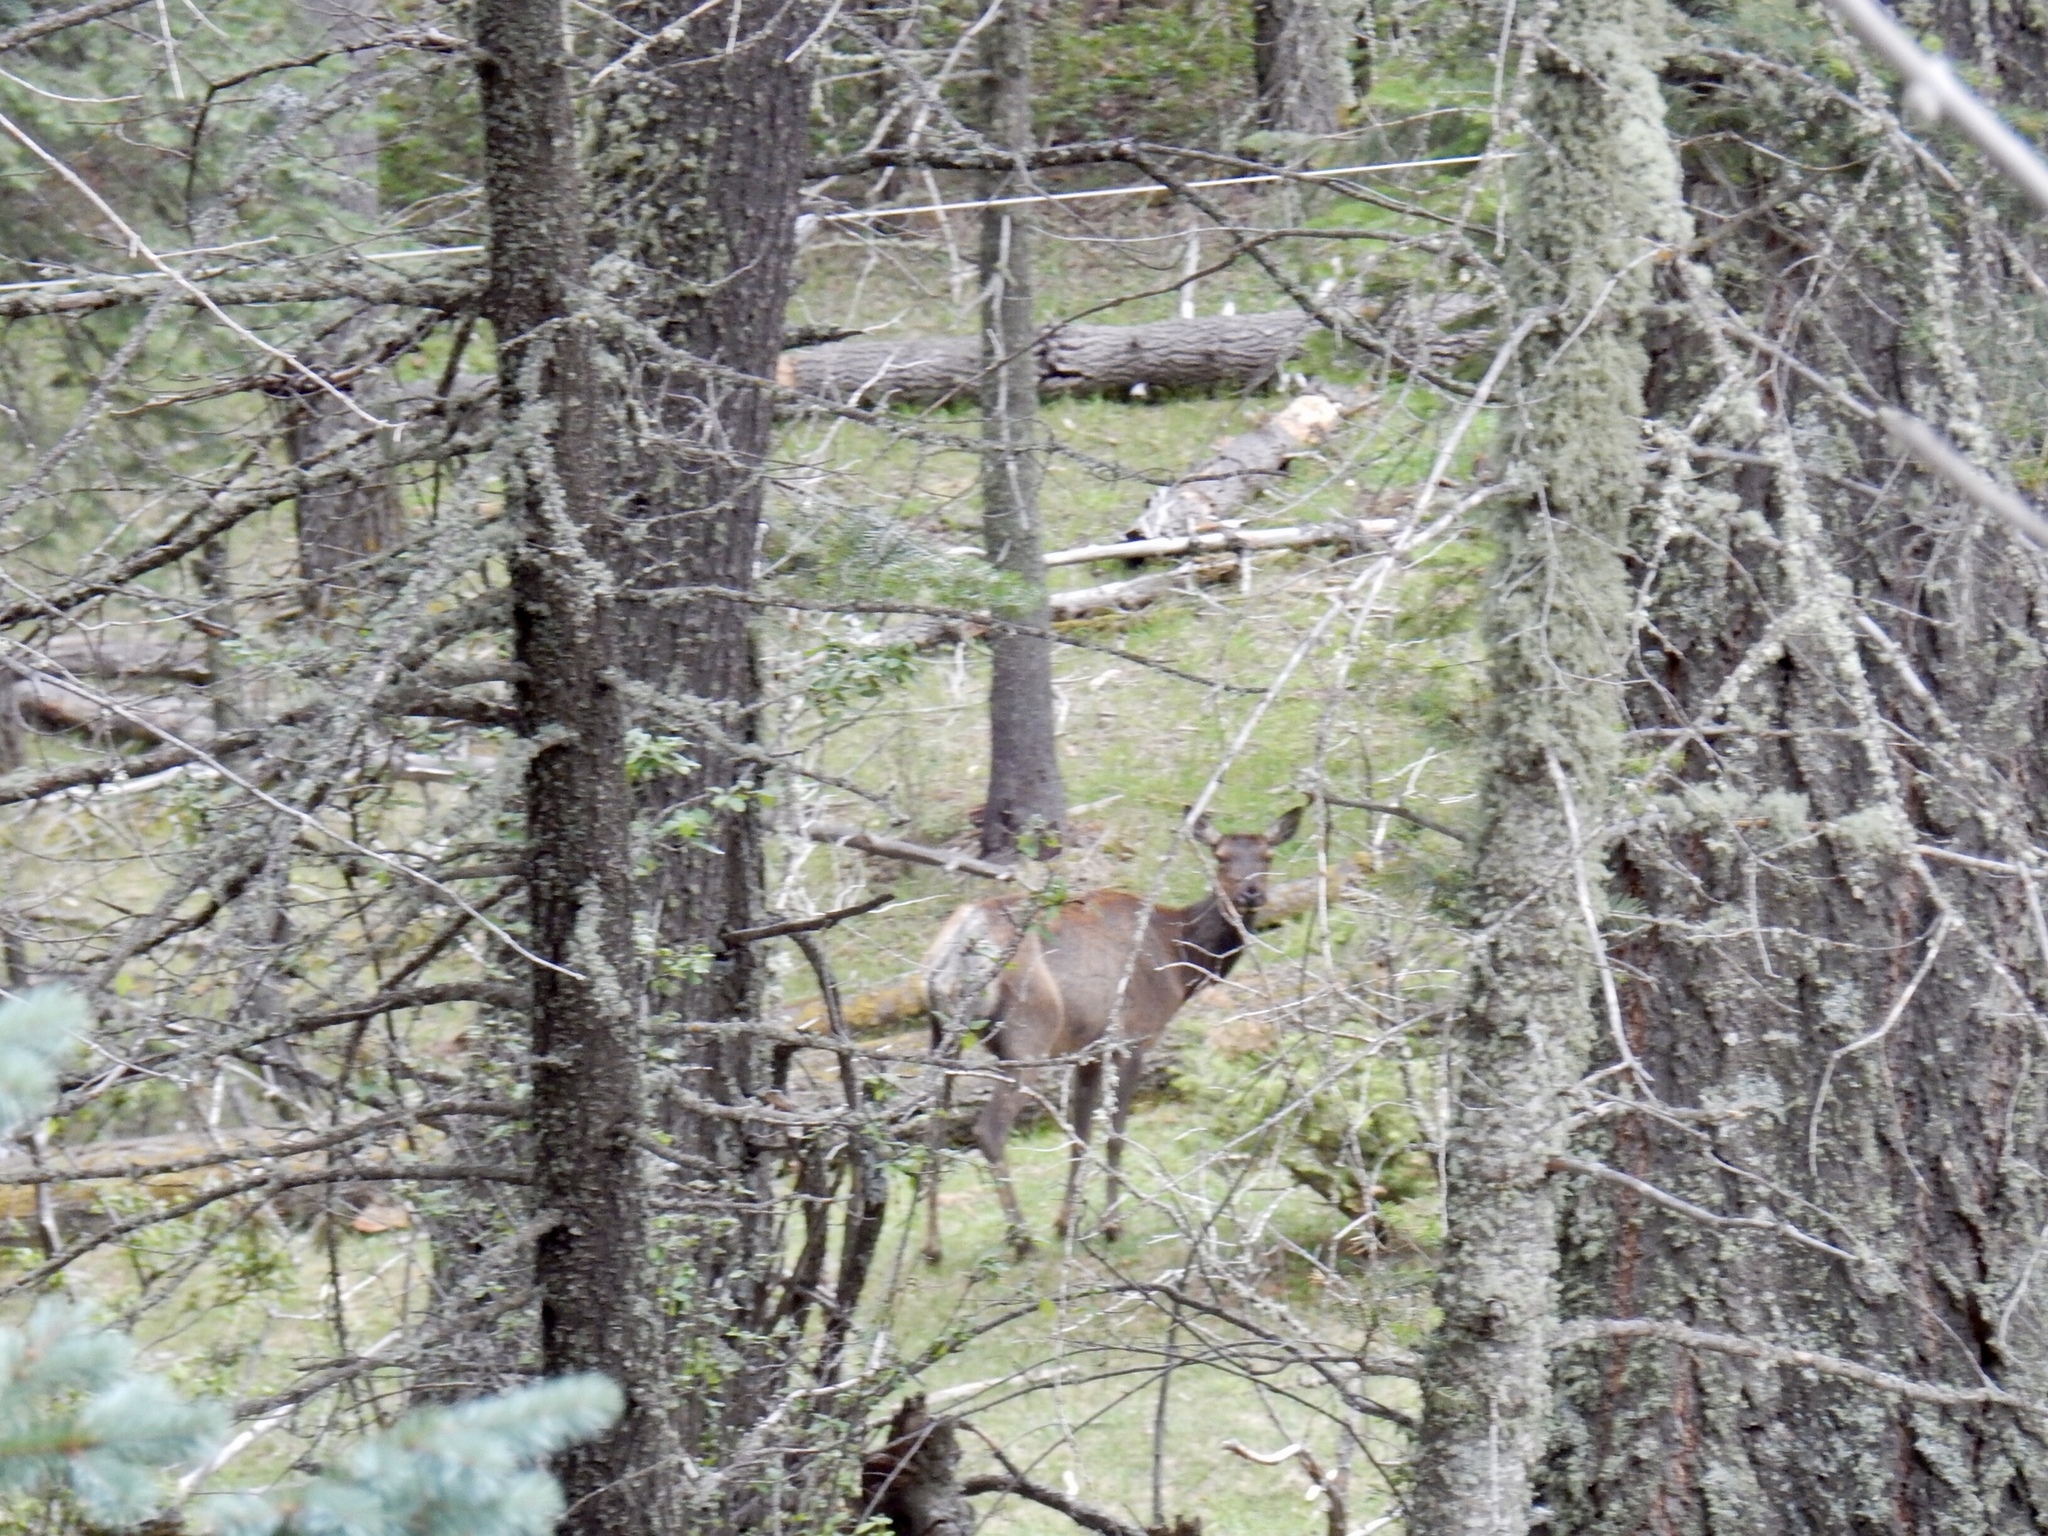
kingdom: Animalia
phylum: Chordata
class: Mammalia
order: Artiodactyla
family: Cervidae
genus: Cervus
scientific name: Cervus elaphus
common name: Red deer
